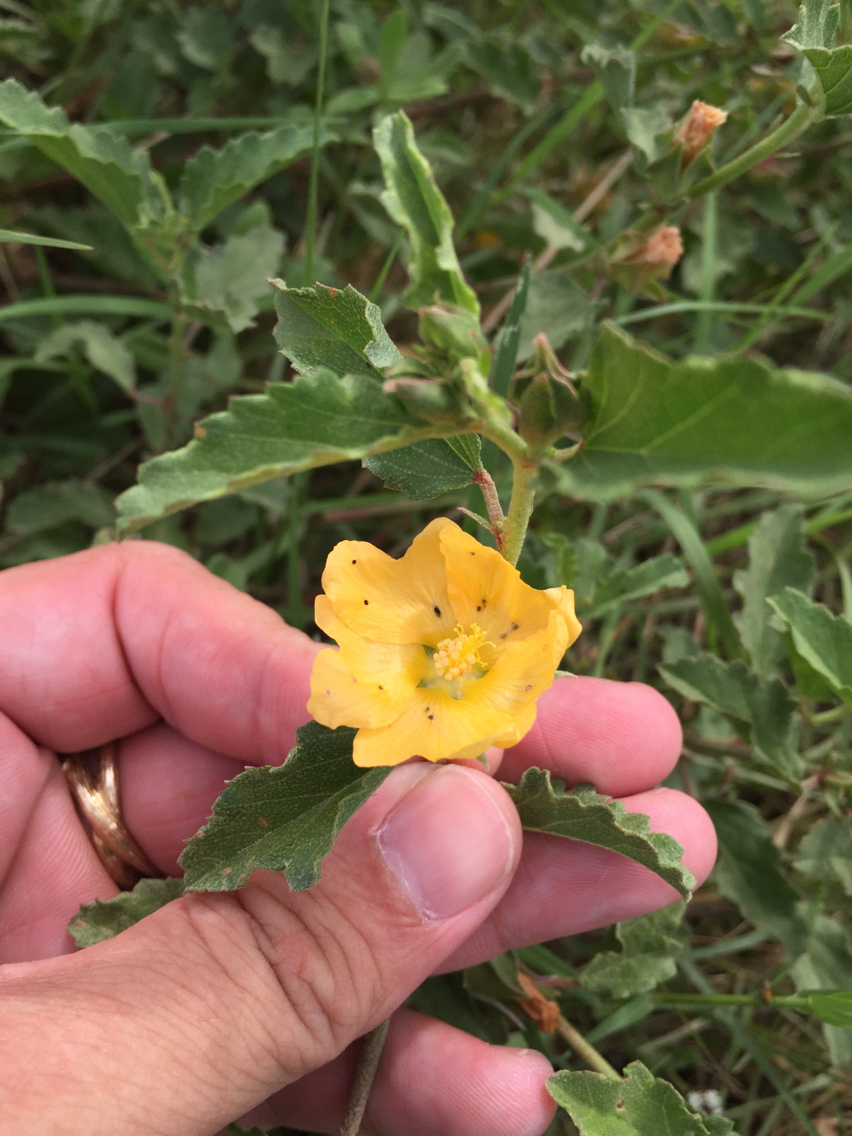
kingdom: Plantae
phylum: Tracheophyta
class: Magnoliopsida
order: Malvales
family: Malvaceae
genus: Malvastrum
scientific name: Malvastrum aurantiacum
